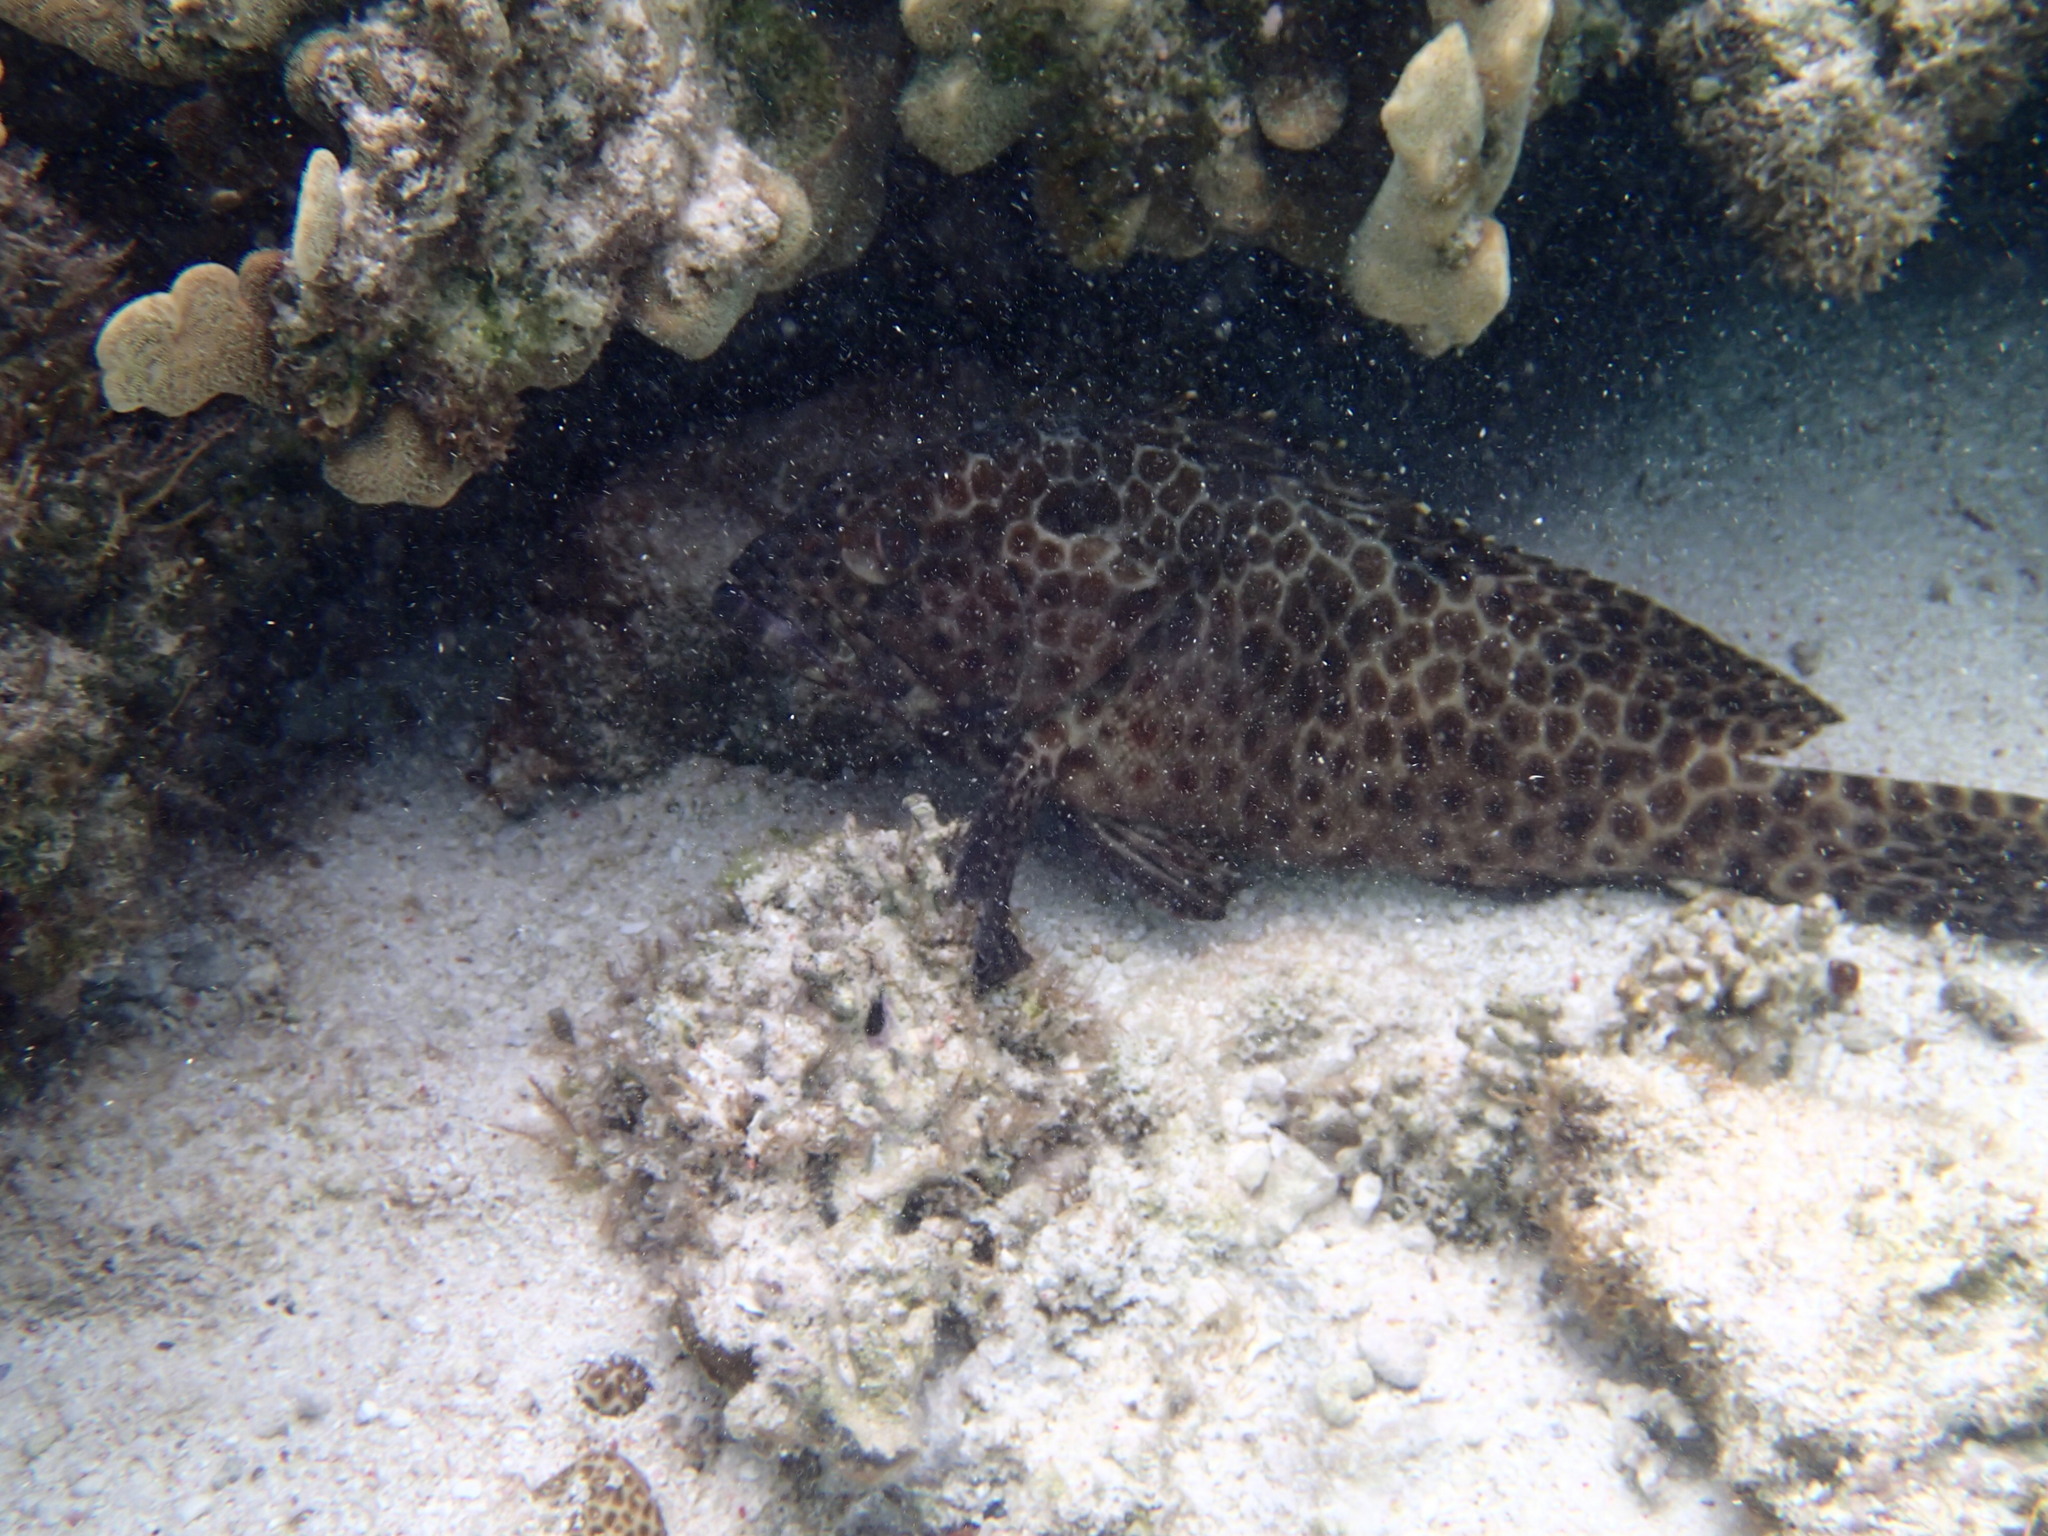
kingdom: Animalia
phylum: Chordata
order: Perciformes
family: Serranidae
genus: Epinephelus
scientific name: Epinephelus merra
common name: Honeycomb grouper
